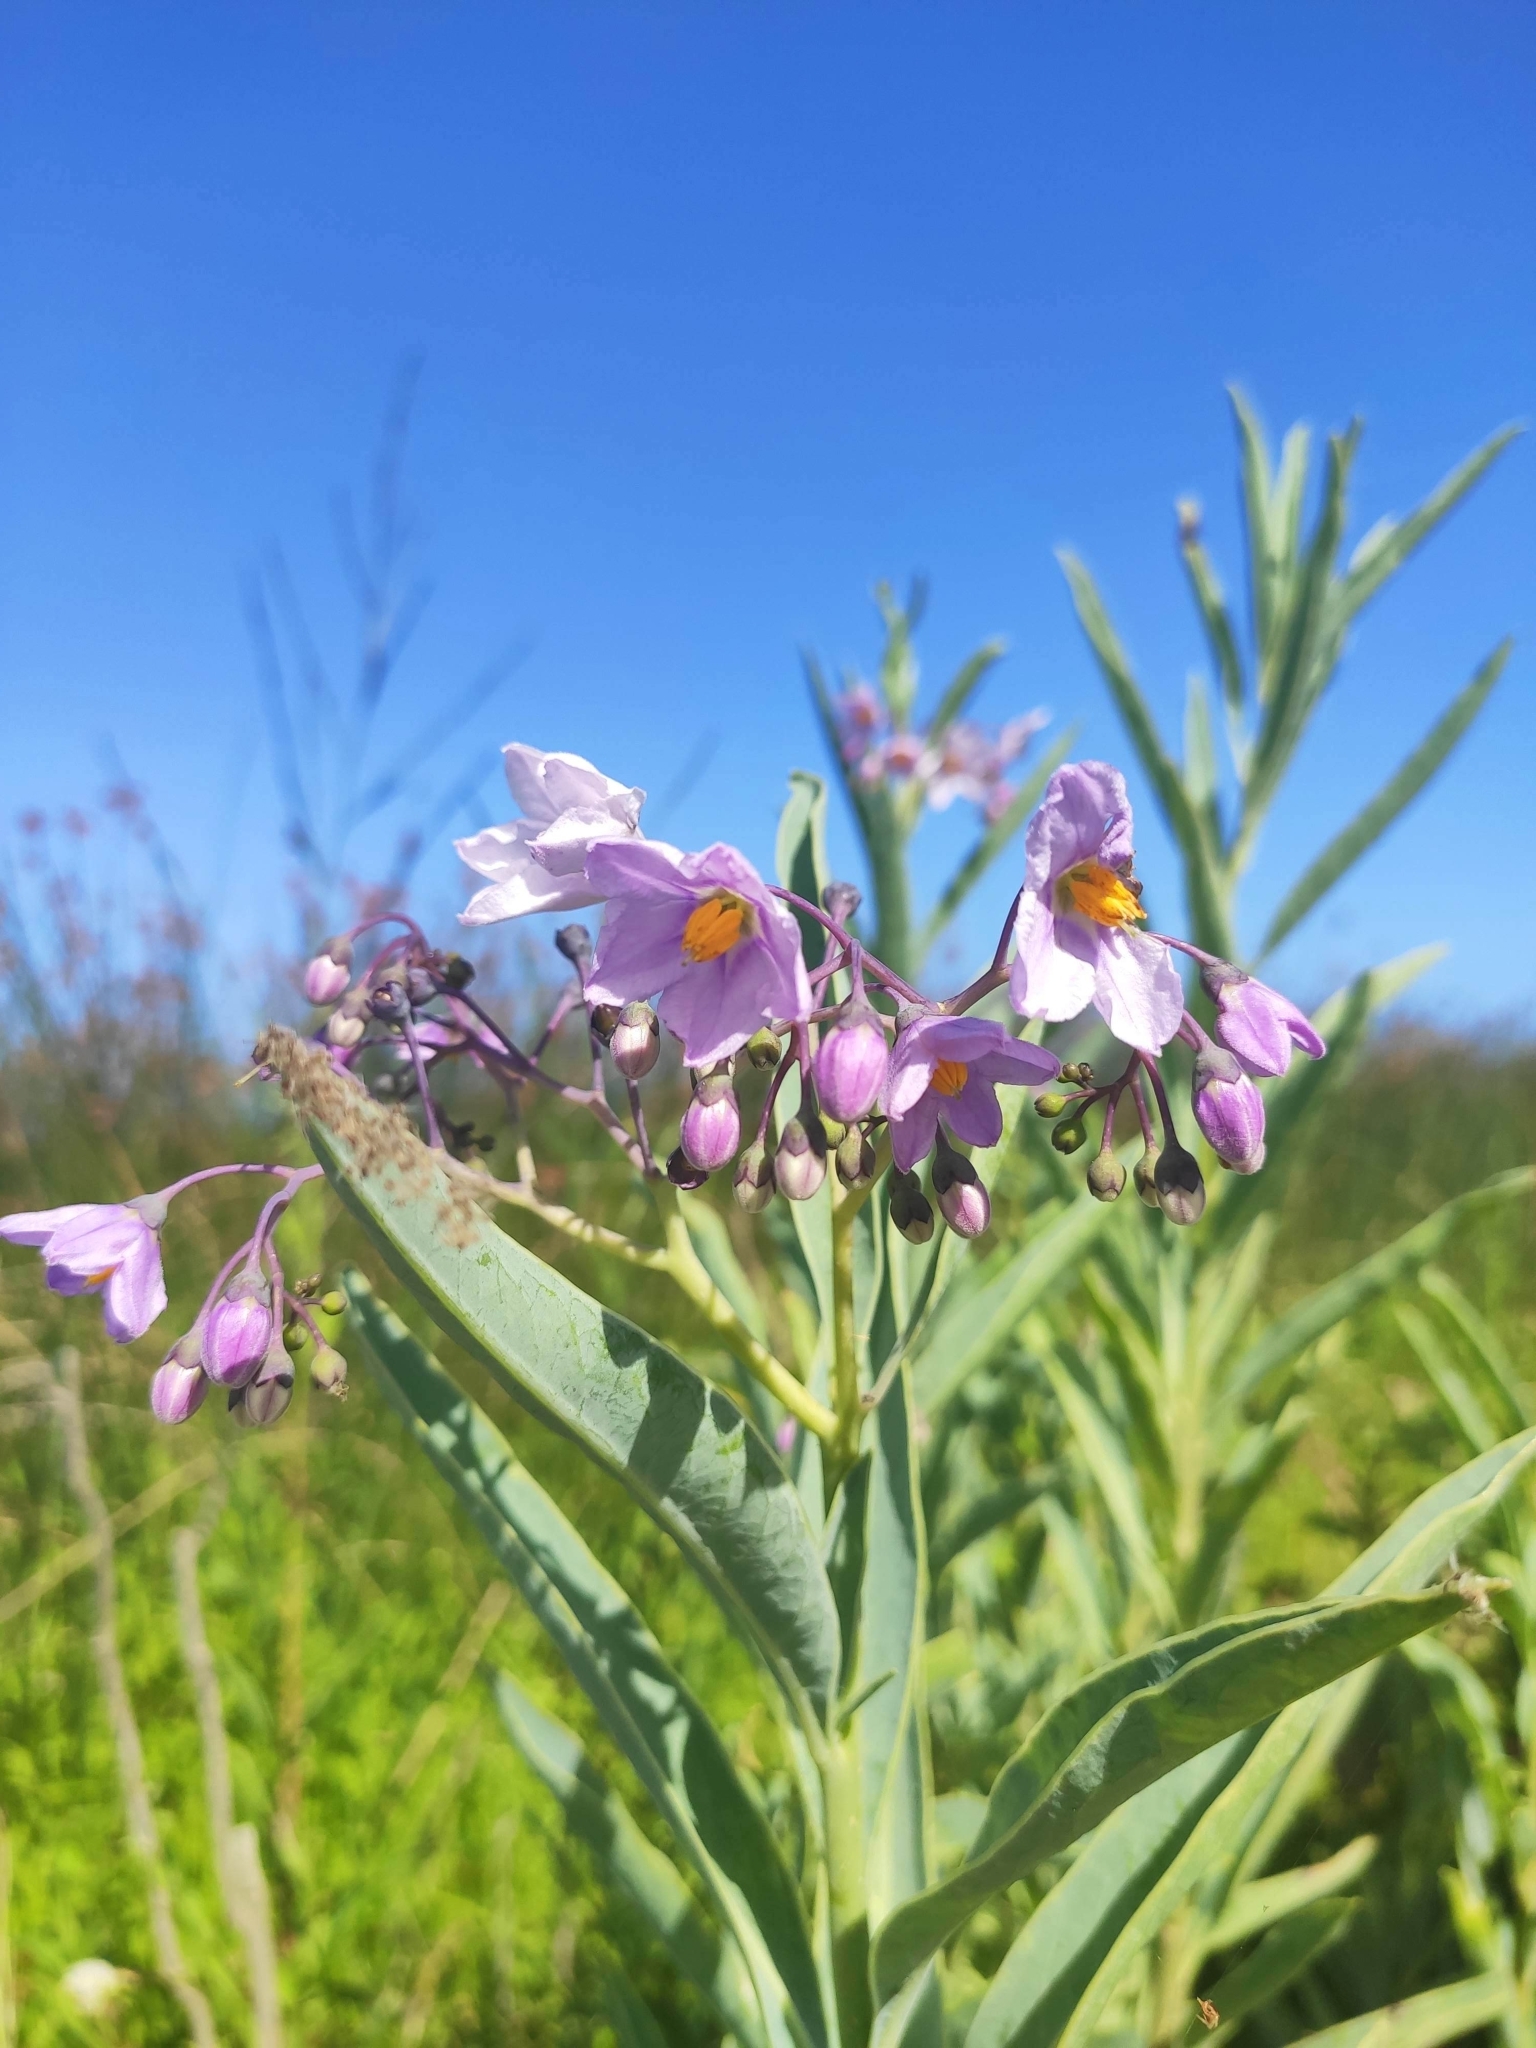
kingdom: Plantae
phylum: Tracheophyta
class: Magnoliopsida
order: Solanales
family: Solanaceae
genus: Solanum
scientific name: Solanum glaucophyllum
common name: Waxyleaf nightshade
